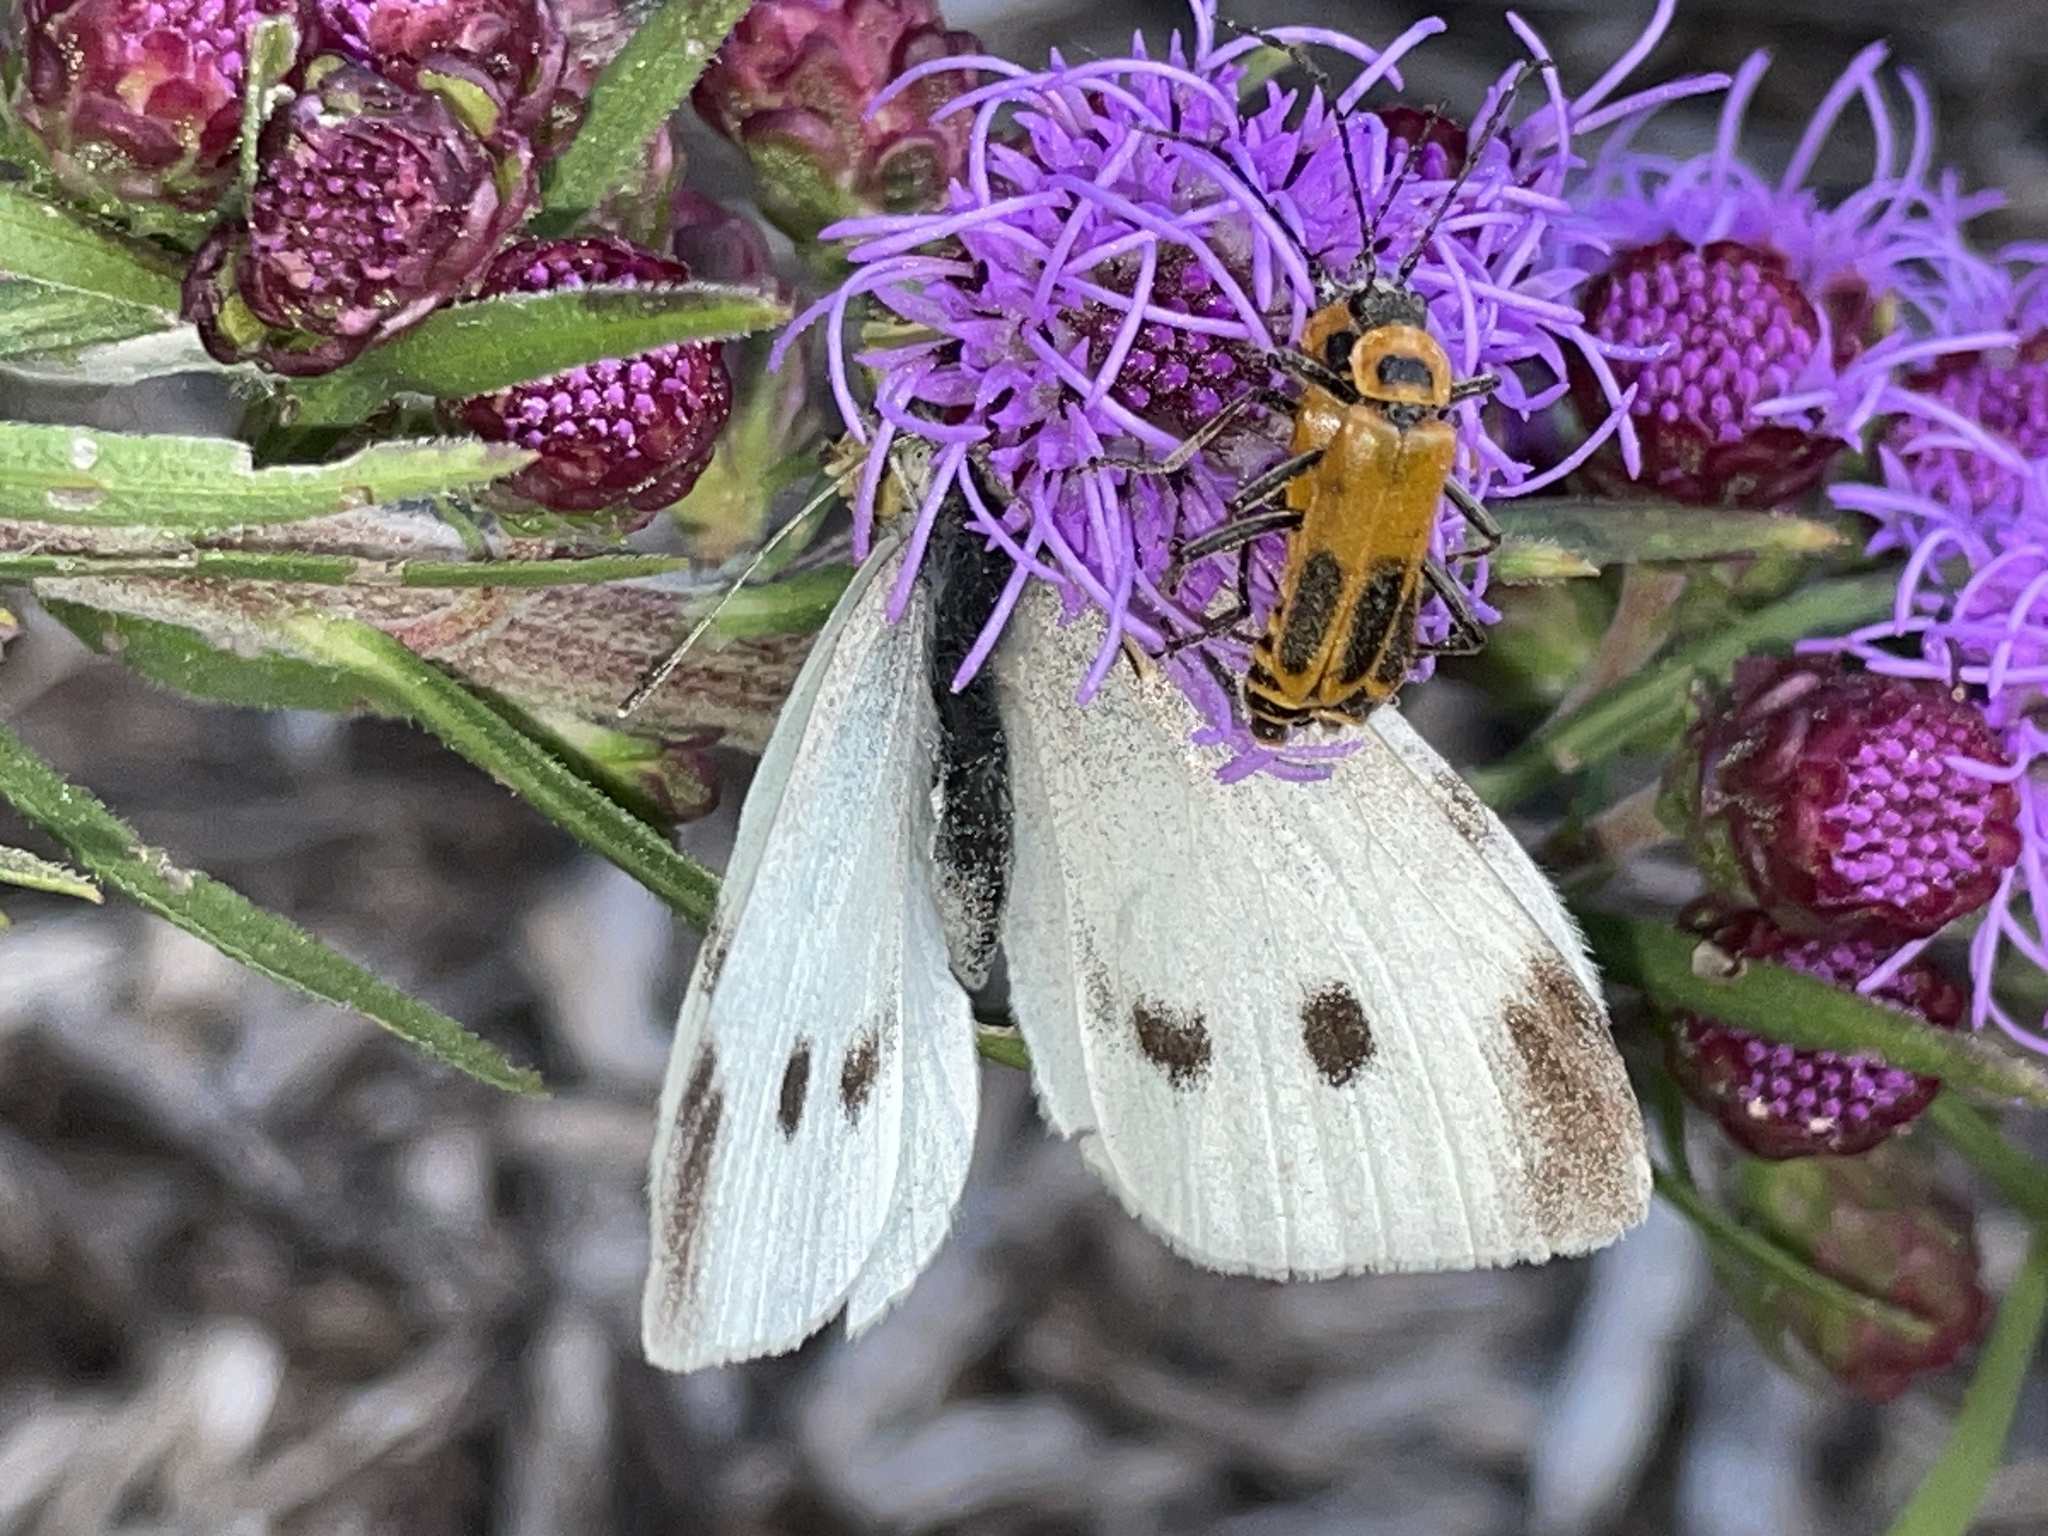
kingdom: Animalia
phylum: Arthropoda
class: Insecta
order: Lepidoptera
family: Pieridae
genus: Pieris
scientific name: Pieris rapae
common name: Small white
